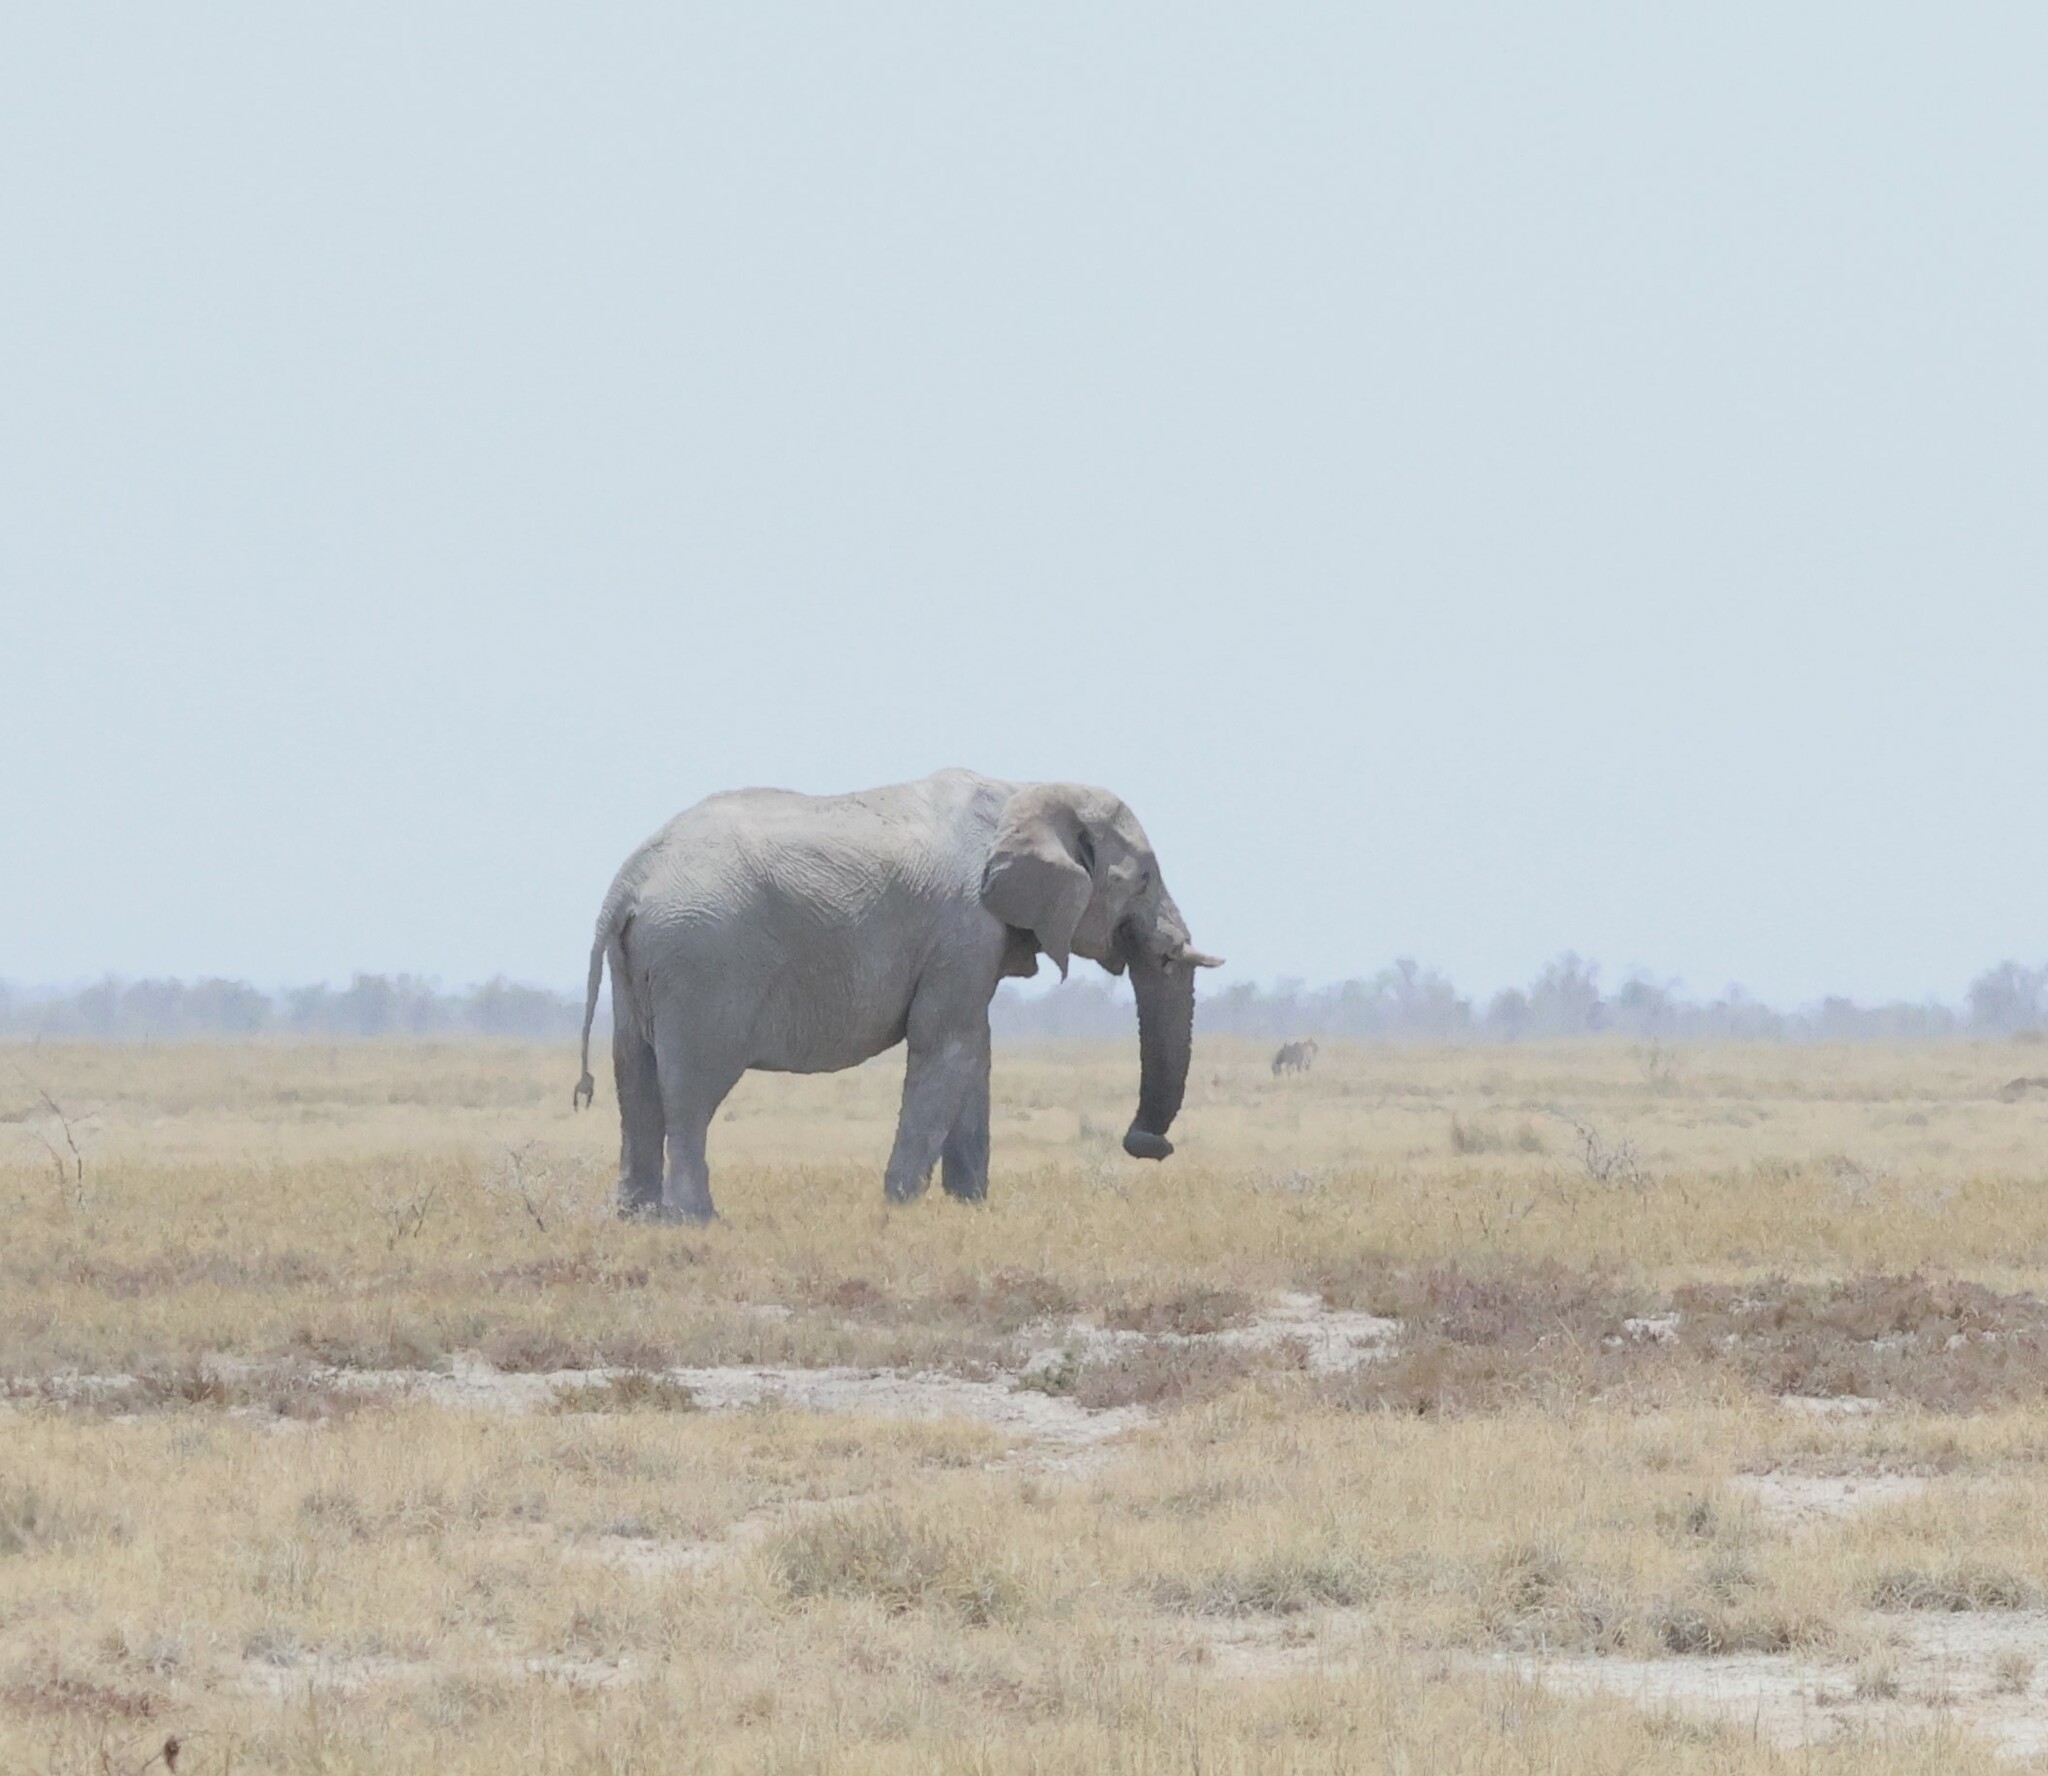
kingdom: Animalia
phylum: Chordata
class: Mammalia
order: Proboscidea
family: Elephantidae
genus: Loxodonta
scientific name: Loxodonta africana
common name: African elephant
